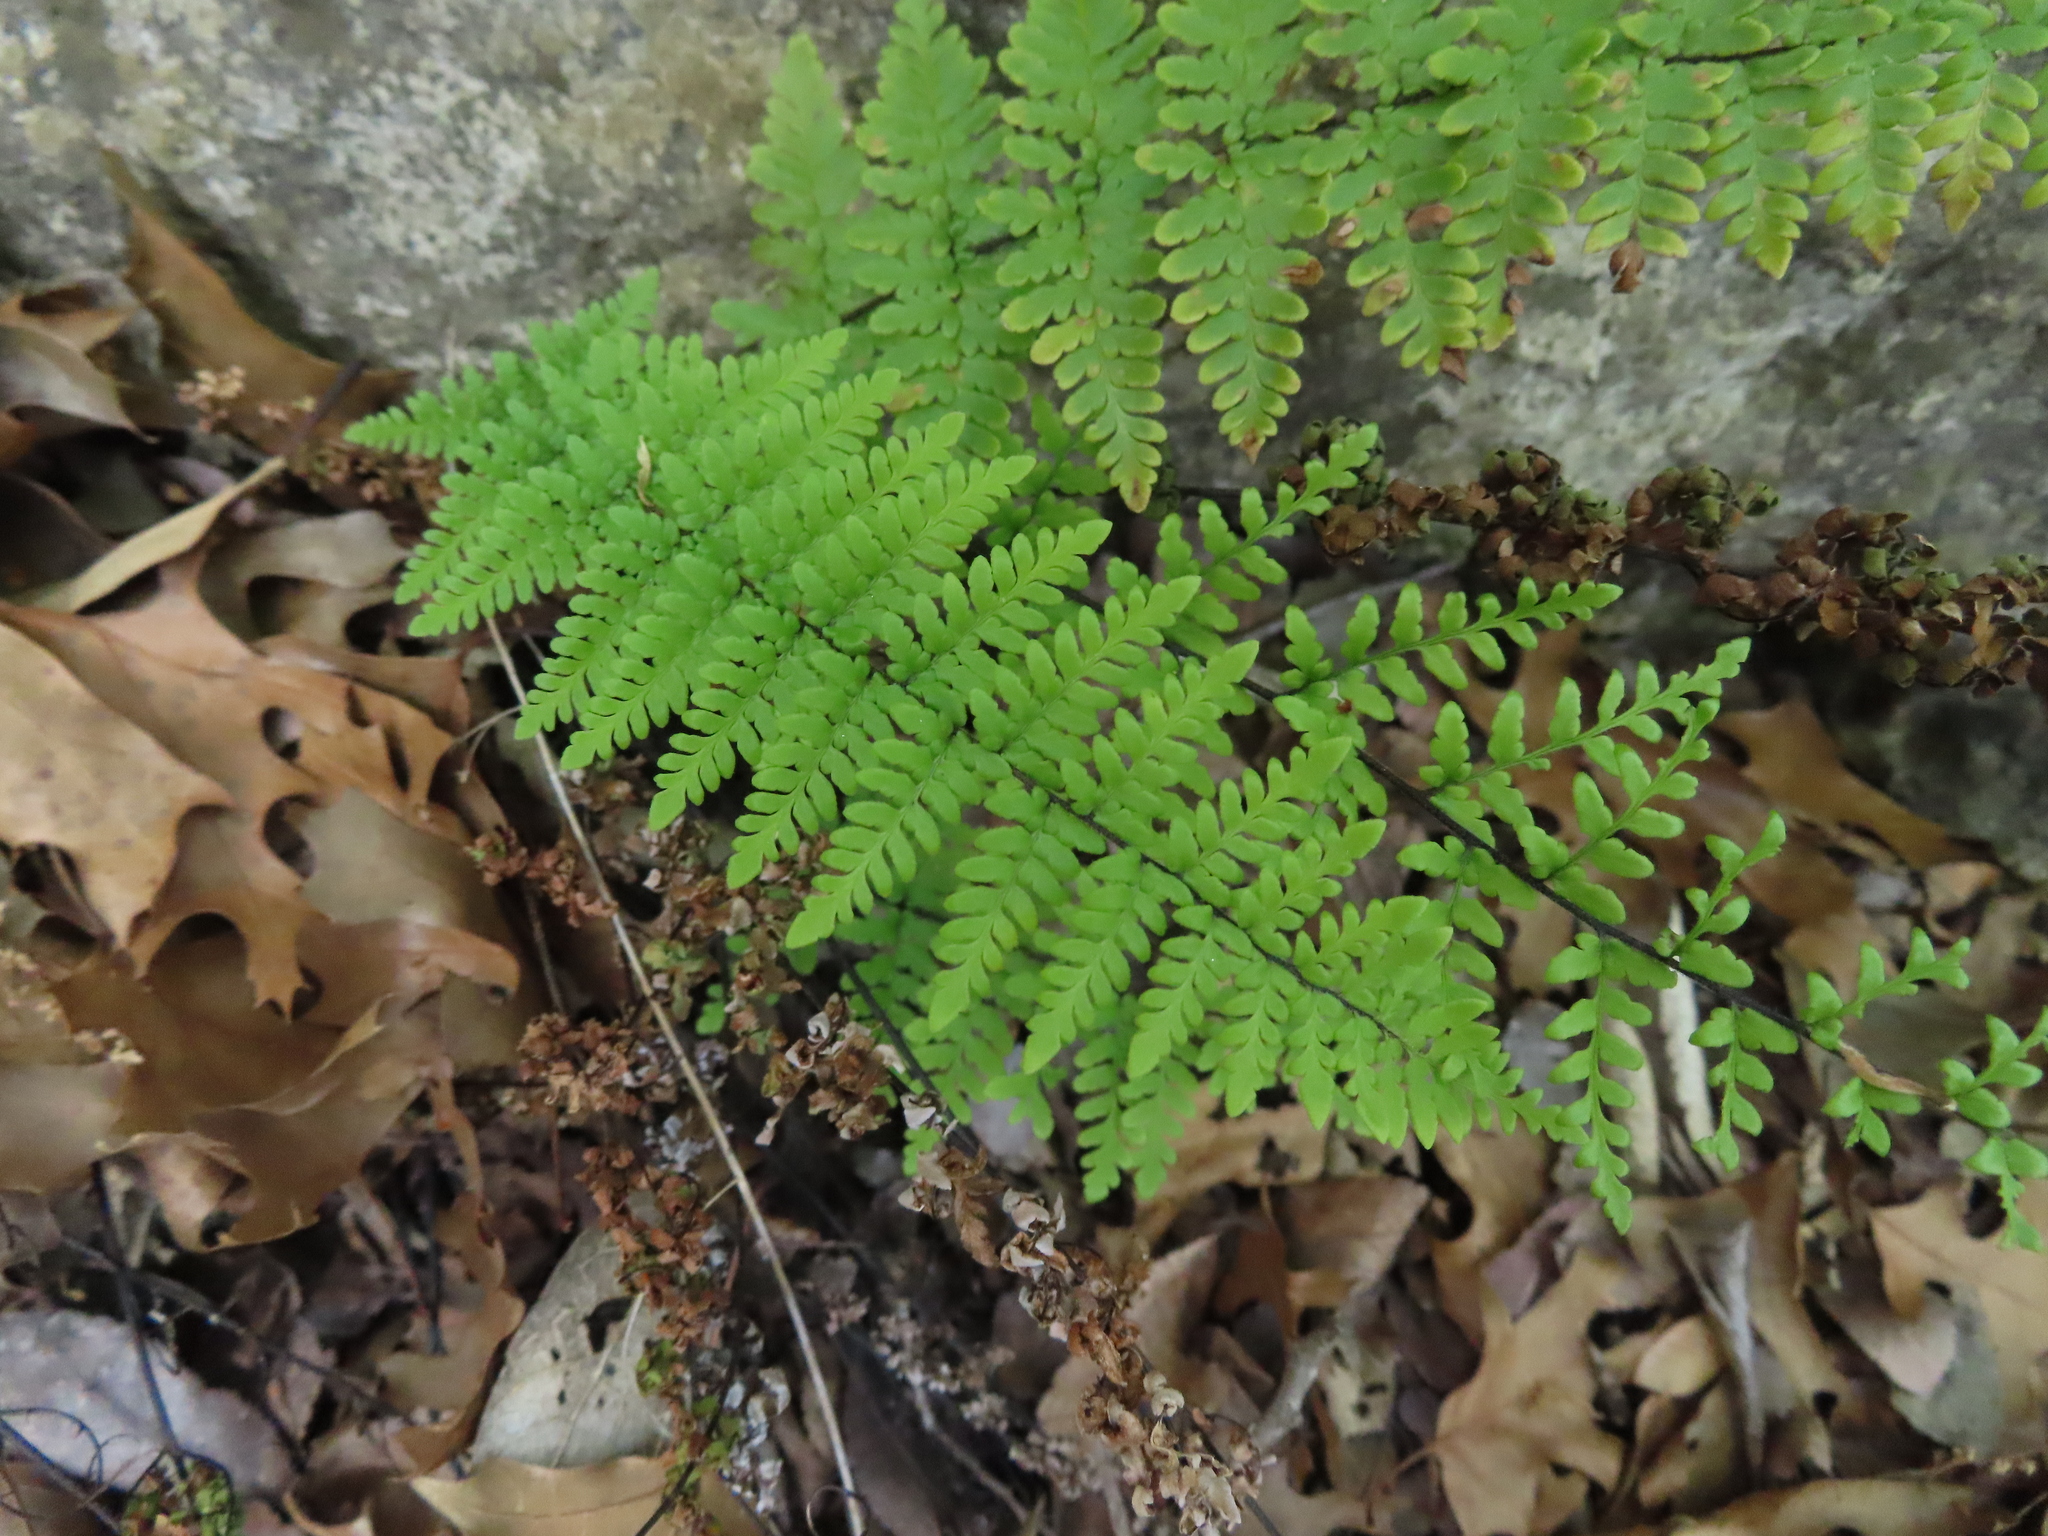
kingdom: Plantae
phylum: Tracheophyta
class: Polypodiopsida
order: Polypodiales
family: Pteridaceae
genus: Myriopteris
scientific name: Myriopteris alabamensis
